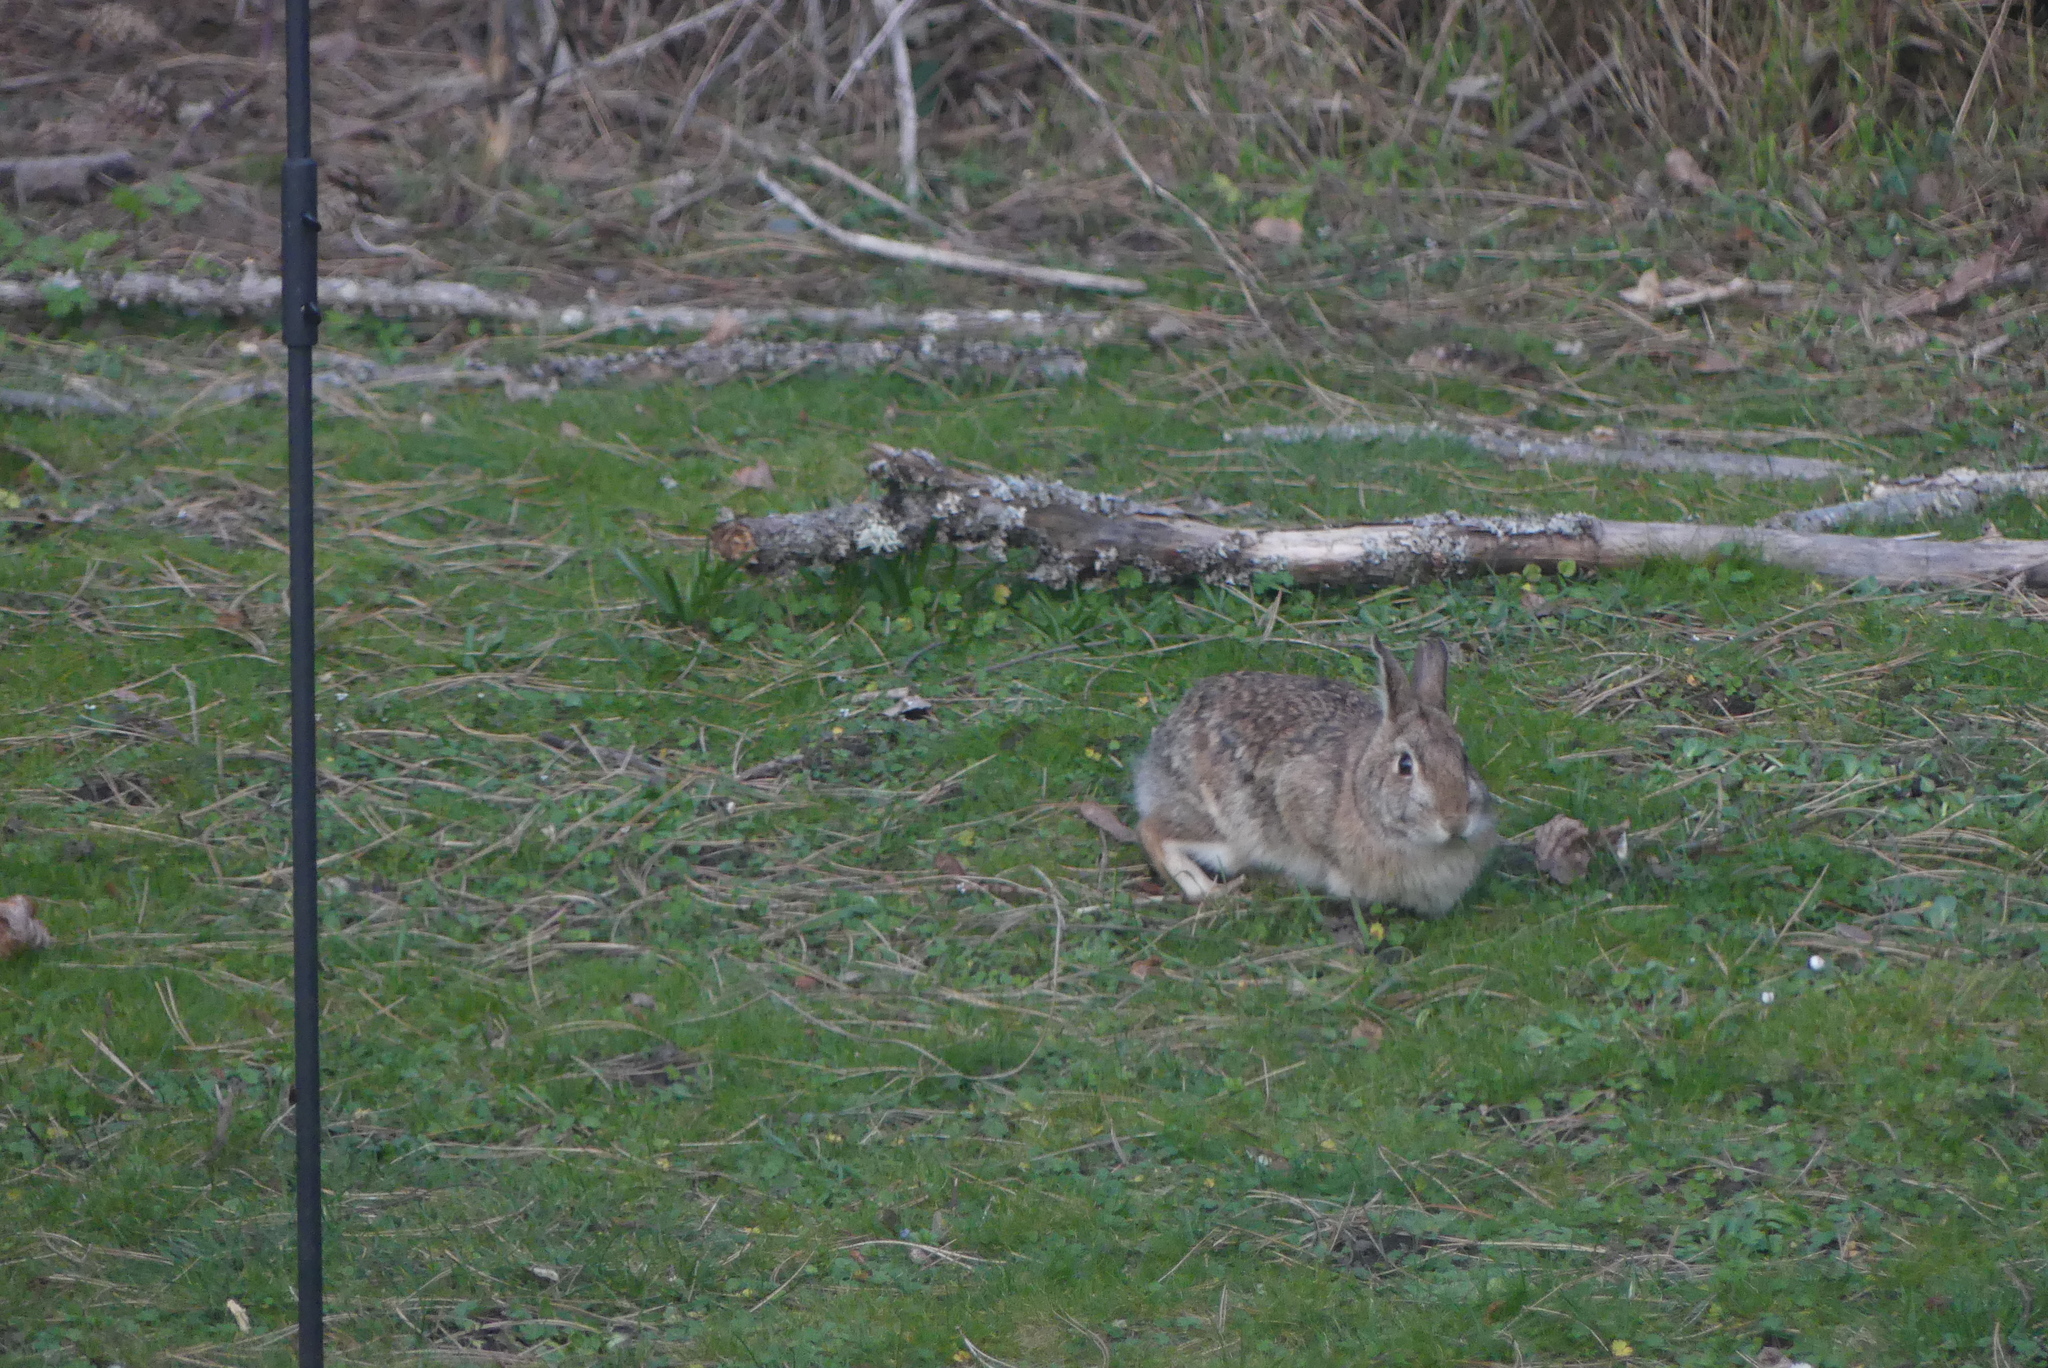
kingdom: Animalia
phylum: Chordata
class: Mammalia
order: Lagomorpha
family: Leporidae
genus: Sylvilagus
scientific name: Sylvilagus floridanus
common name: Eastern cottontail
